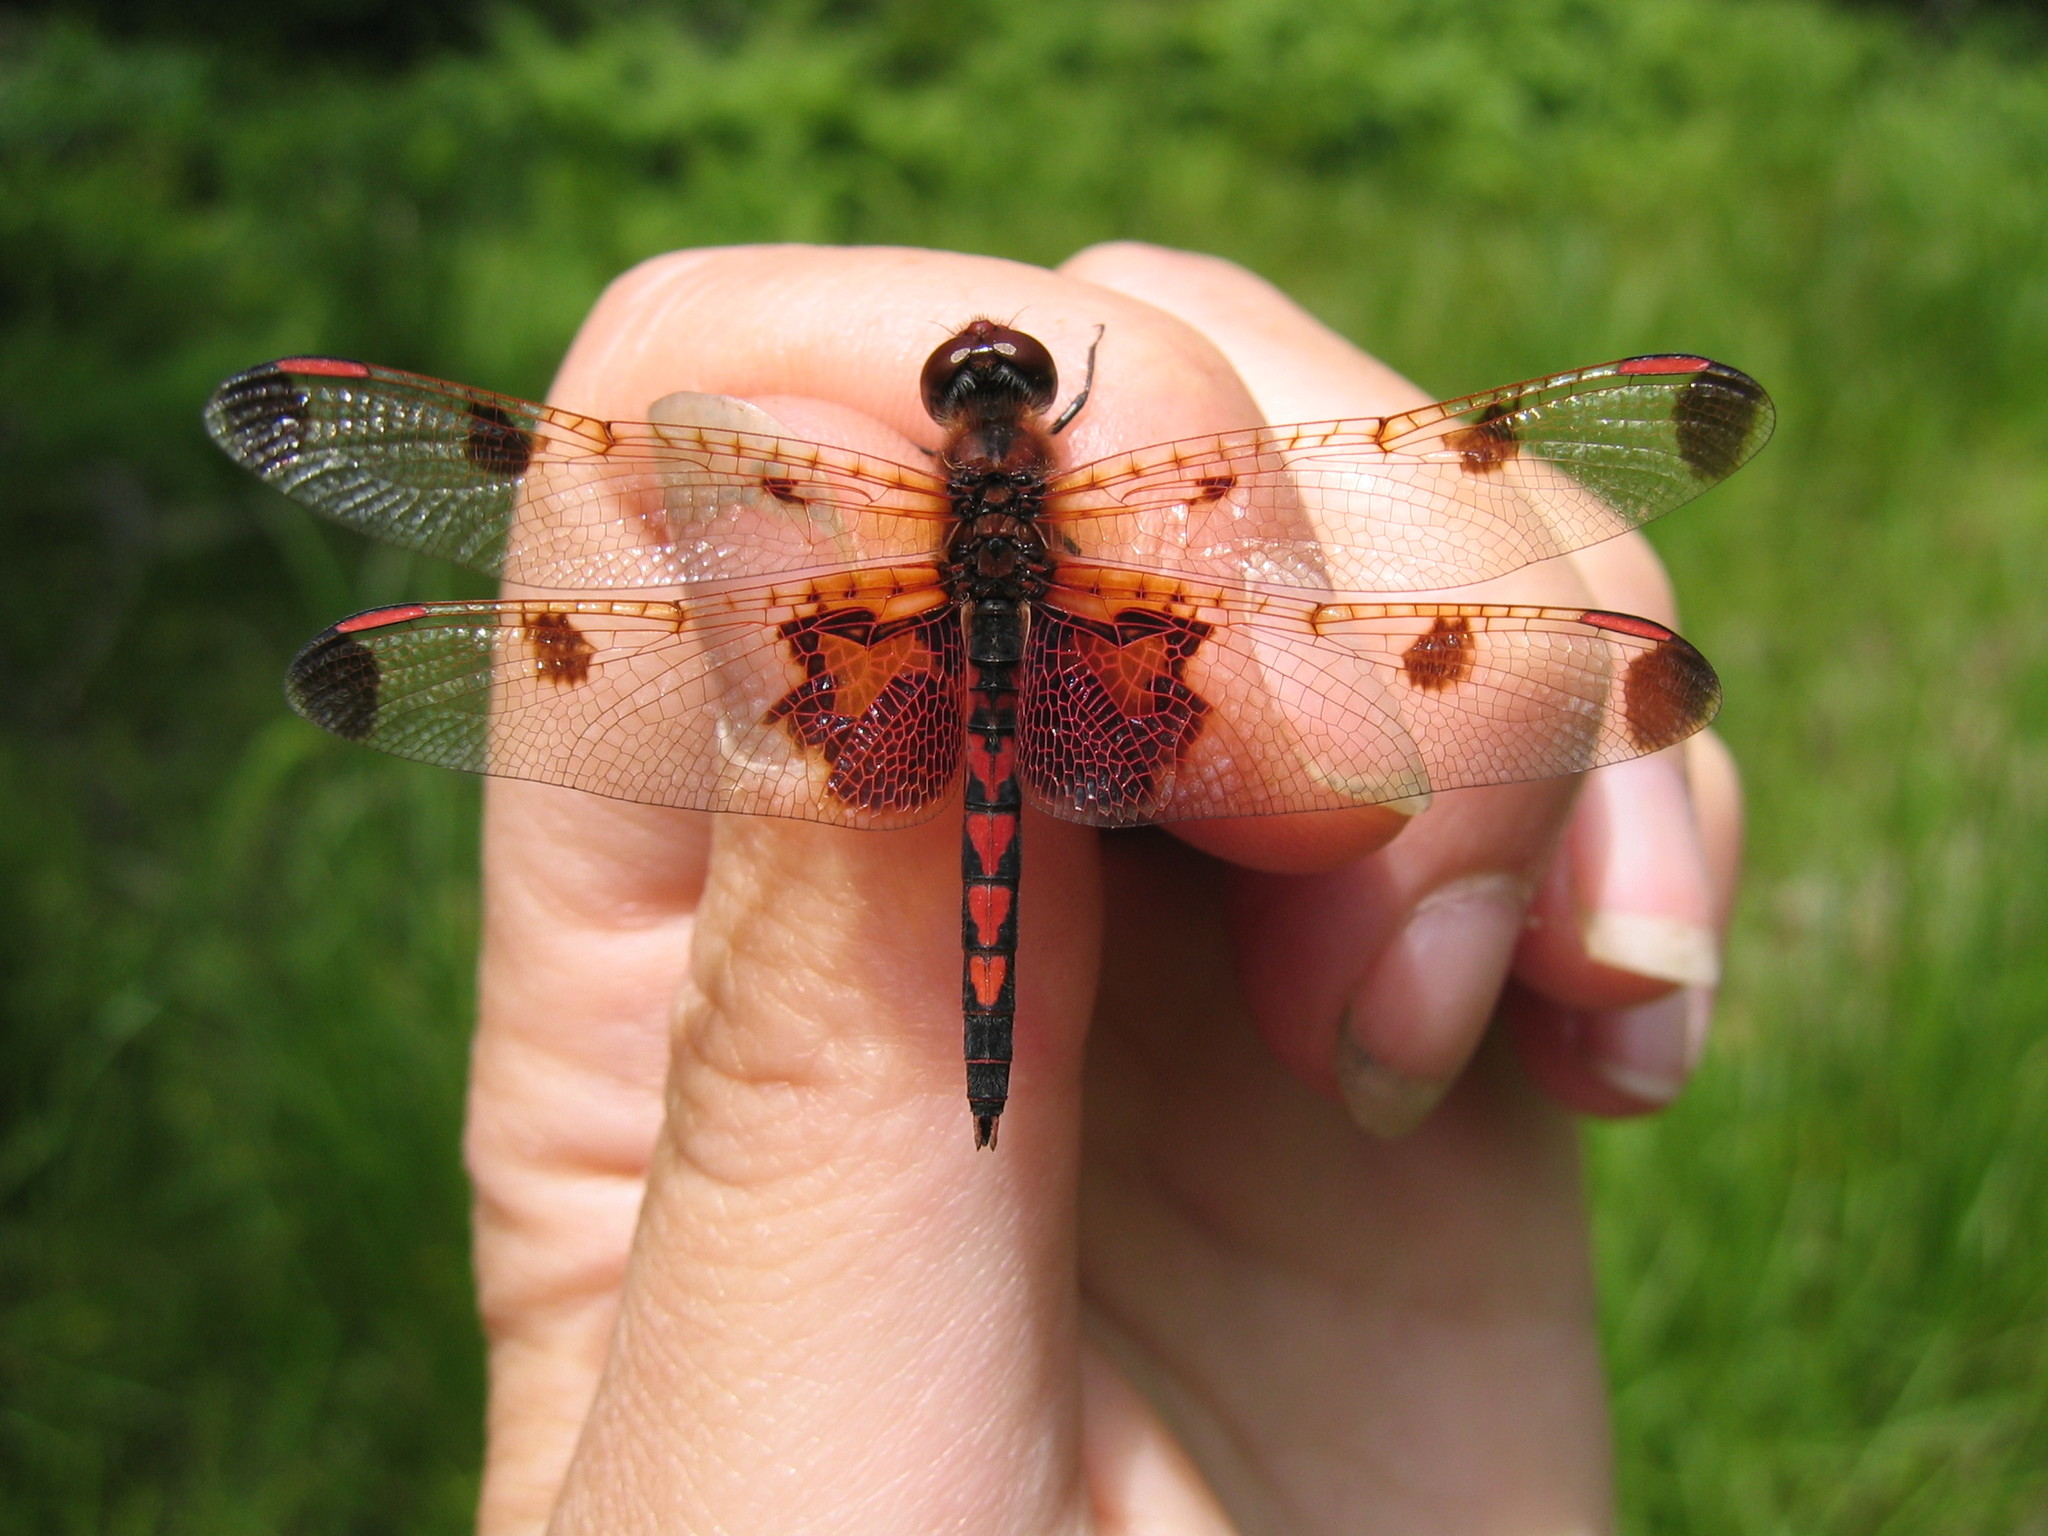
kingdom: Animalia
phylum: Arthropoda
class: Insecta
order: Odonata
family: Libellulidae
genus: Celithemis
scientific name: Celithemis elisa
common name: Calico pennant
